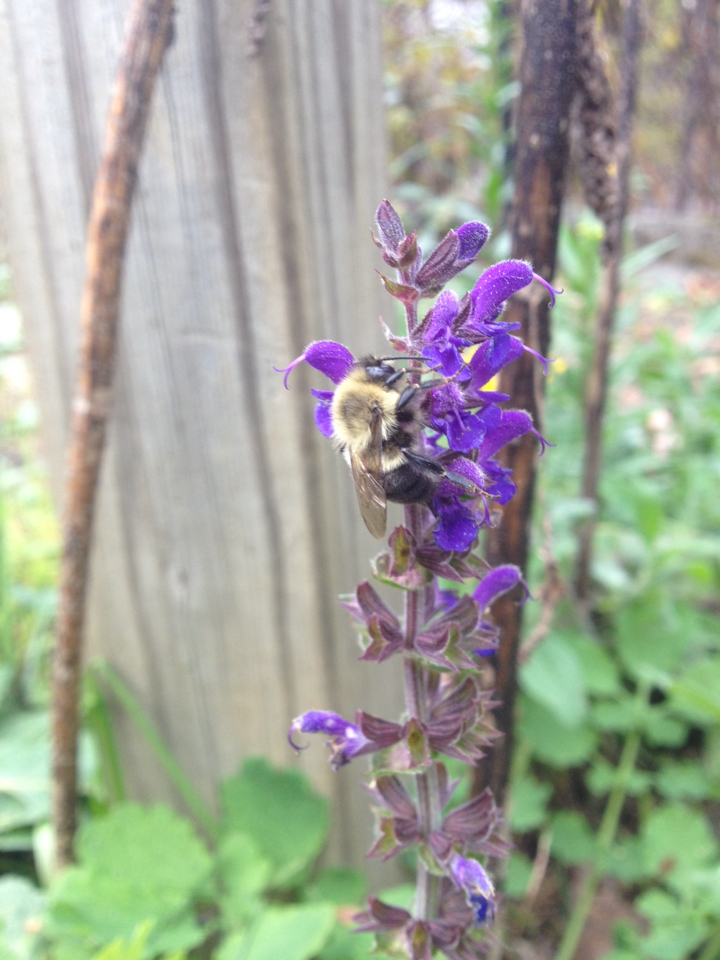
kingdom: Animalia
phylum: Arthropoda
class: Insecta
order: Hymenoptera
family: Apidae
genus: Bombus
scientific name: Bombus impatiens
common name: Common eastern bumble bee
